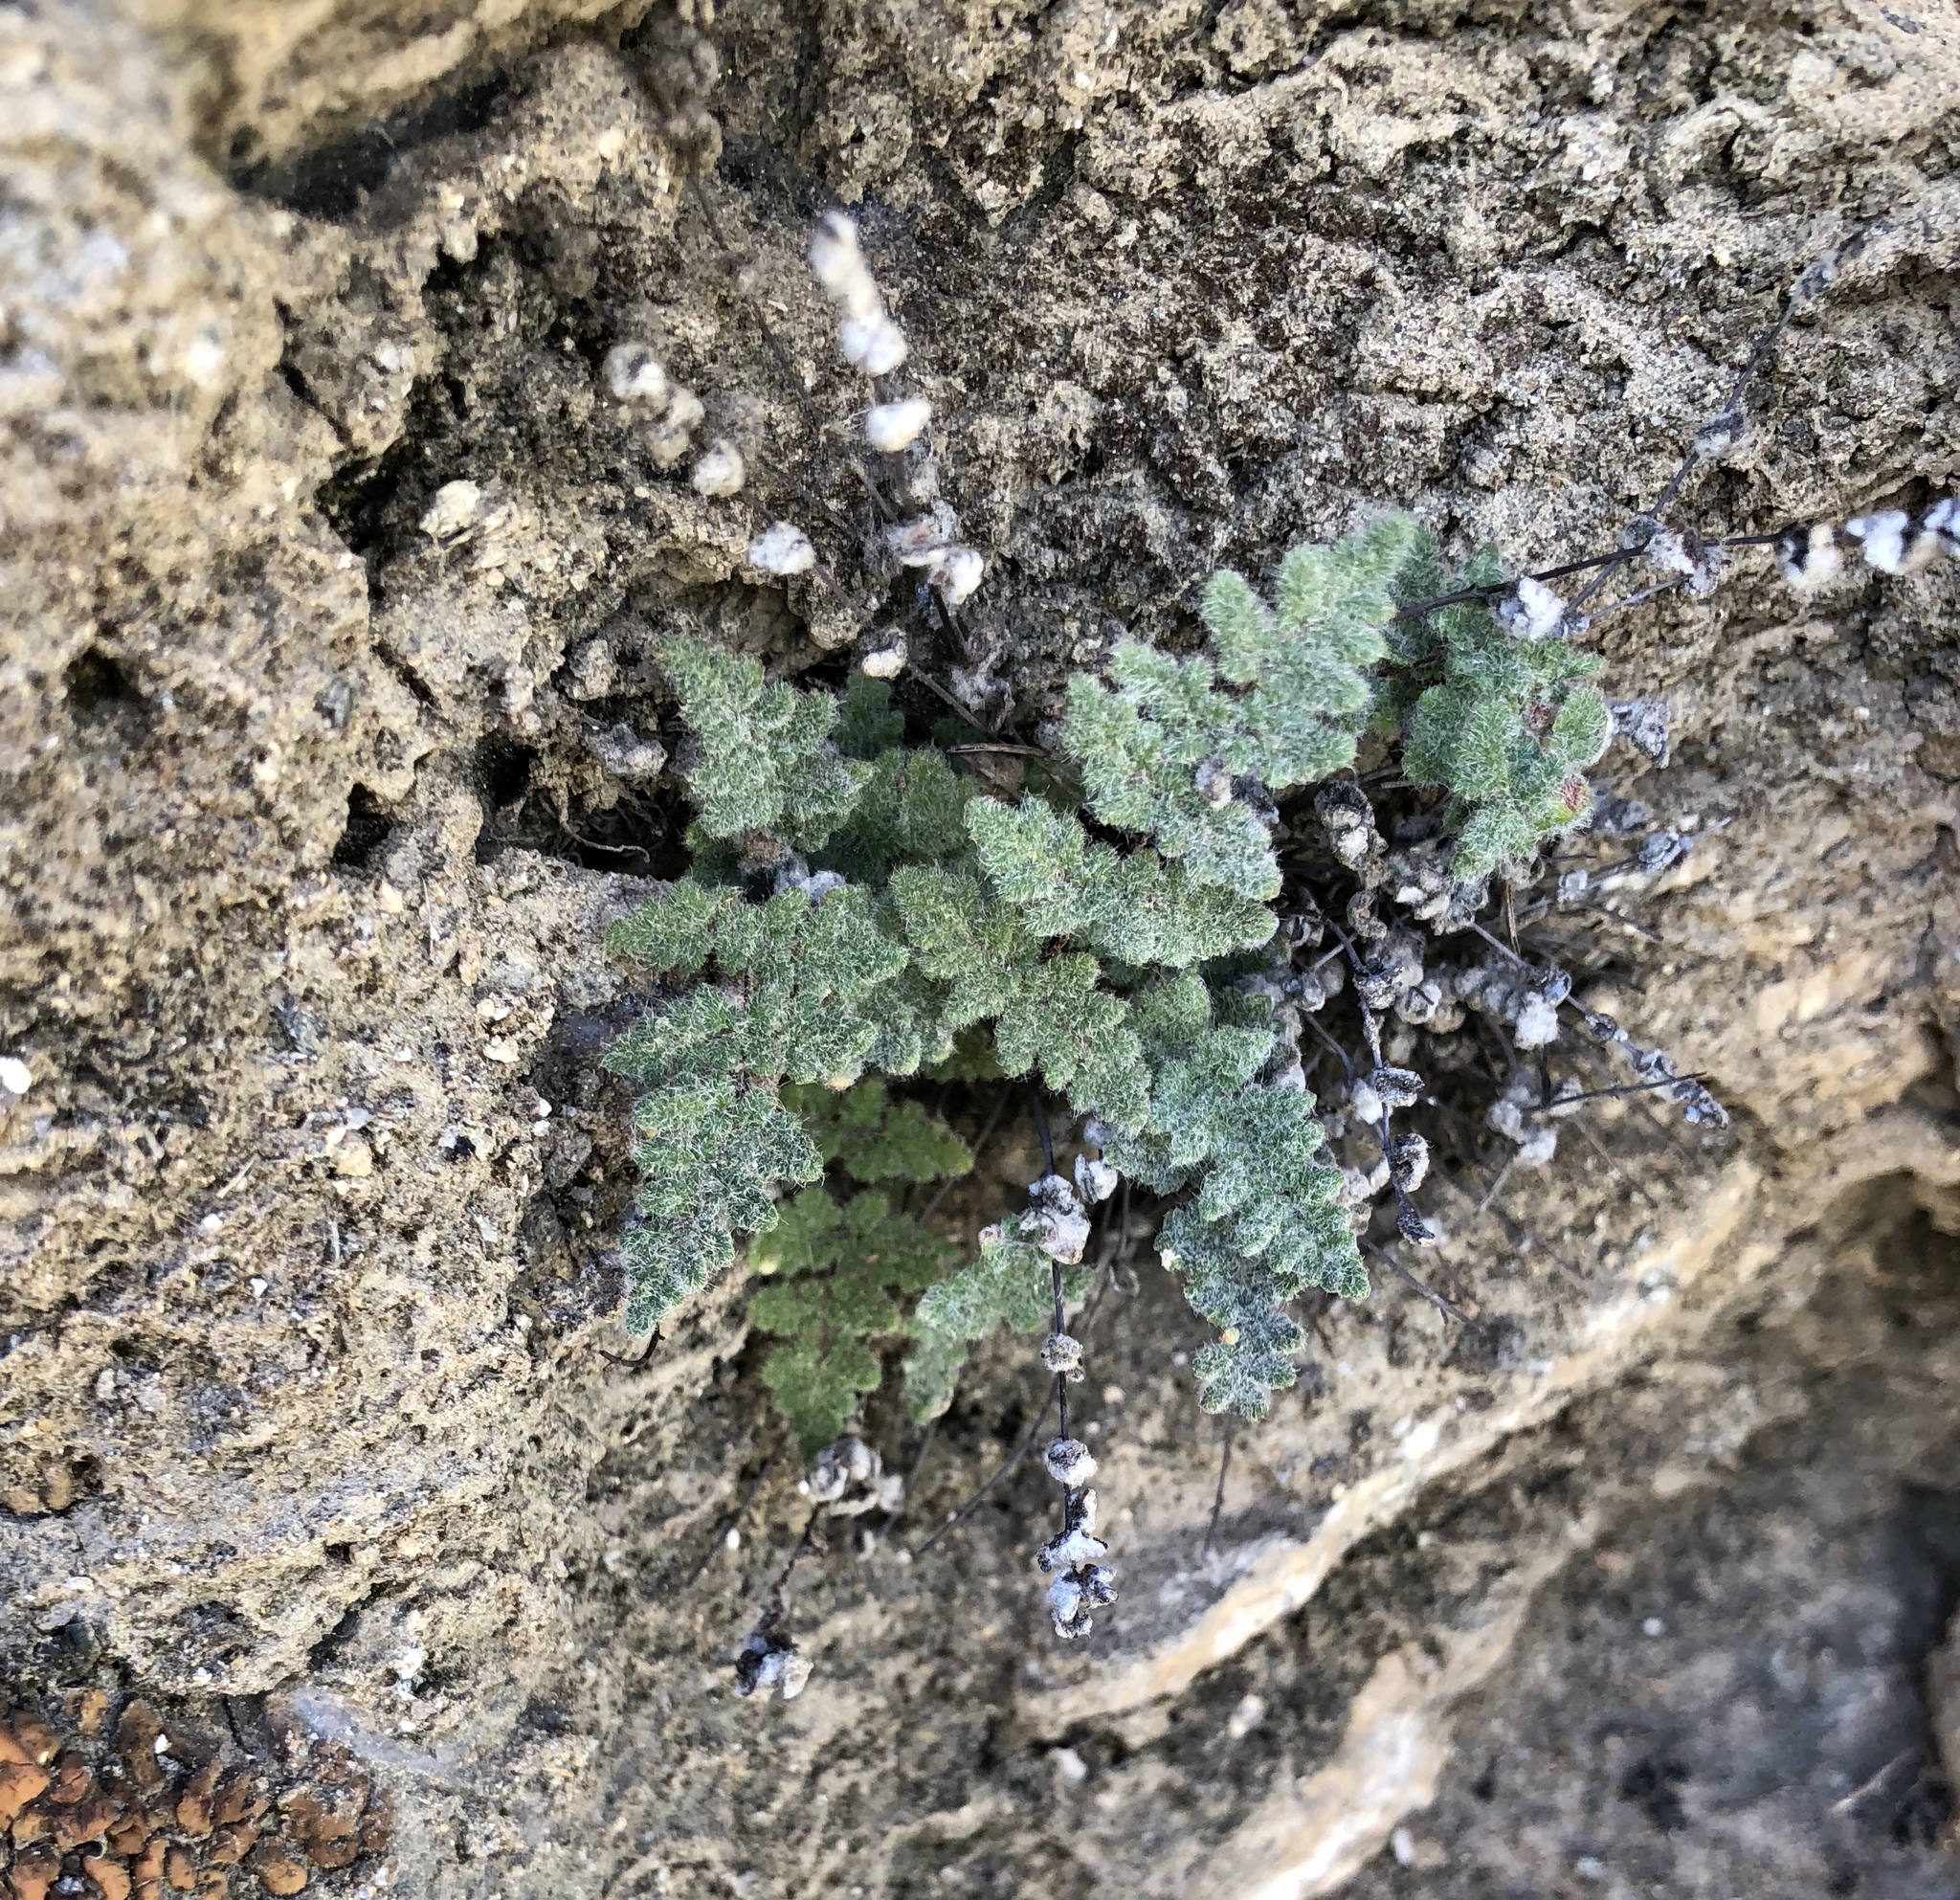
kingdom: Plantae
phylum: Tracheophyta
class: Polypodiopsida
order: Polypodiales
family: Pteridaceae
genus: Myriopteris
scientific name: Myriopteris parryi
